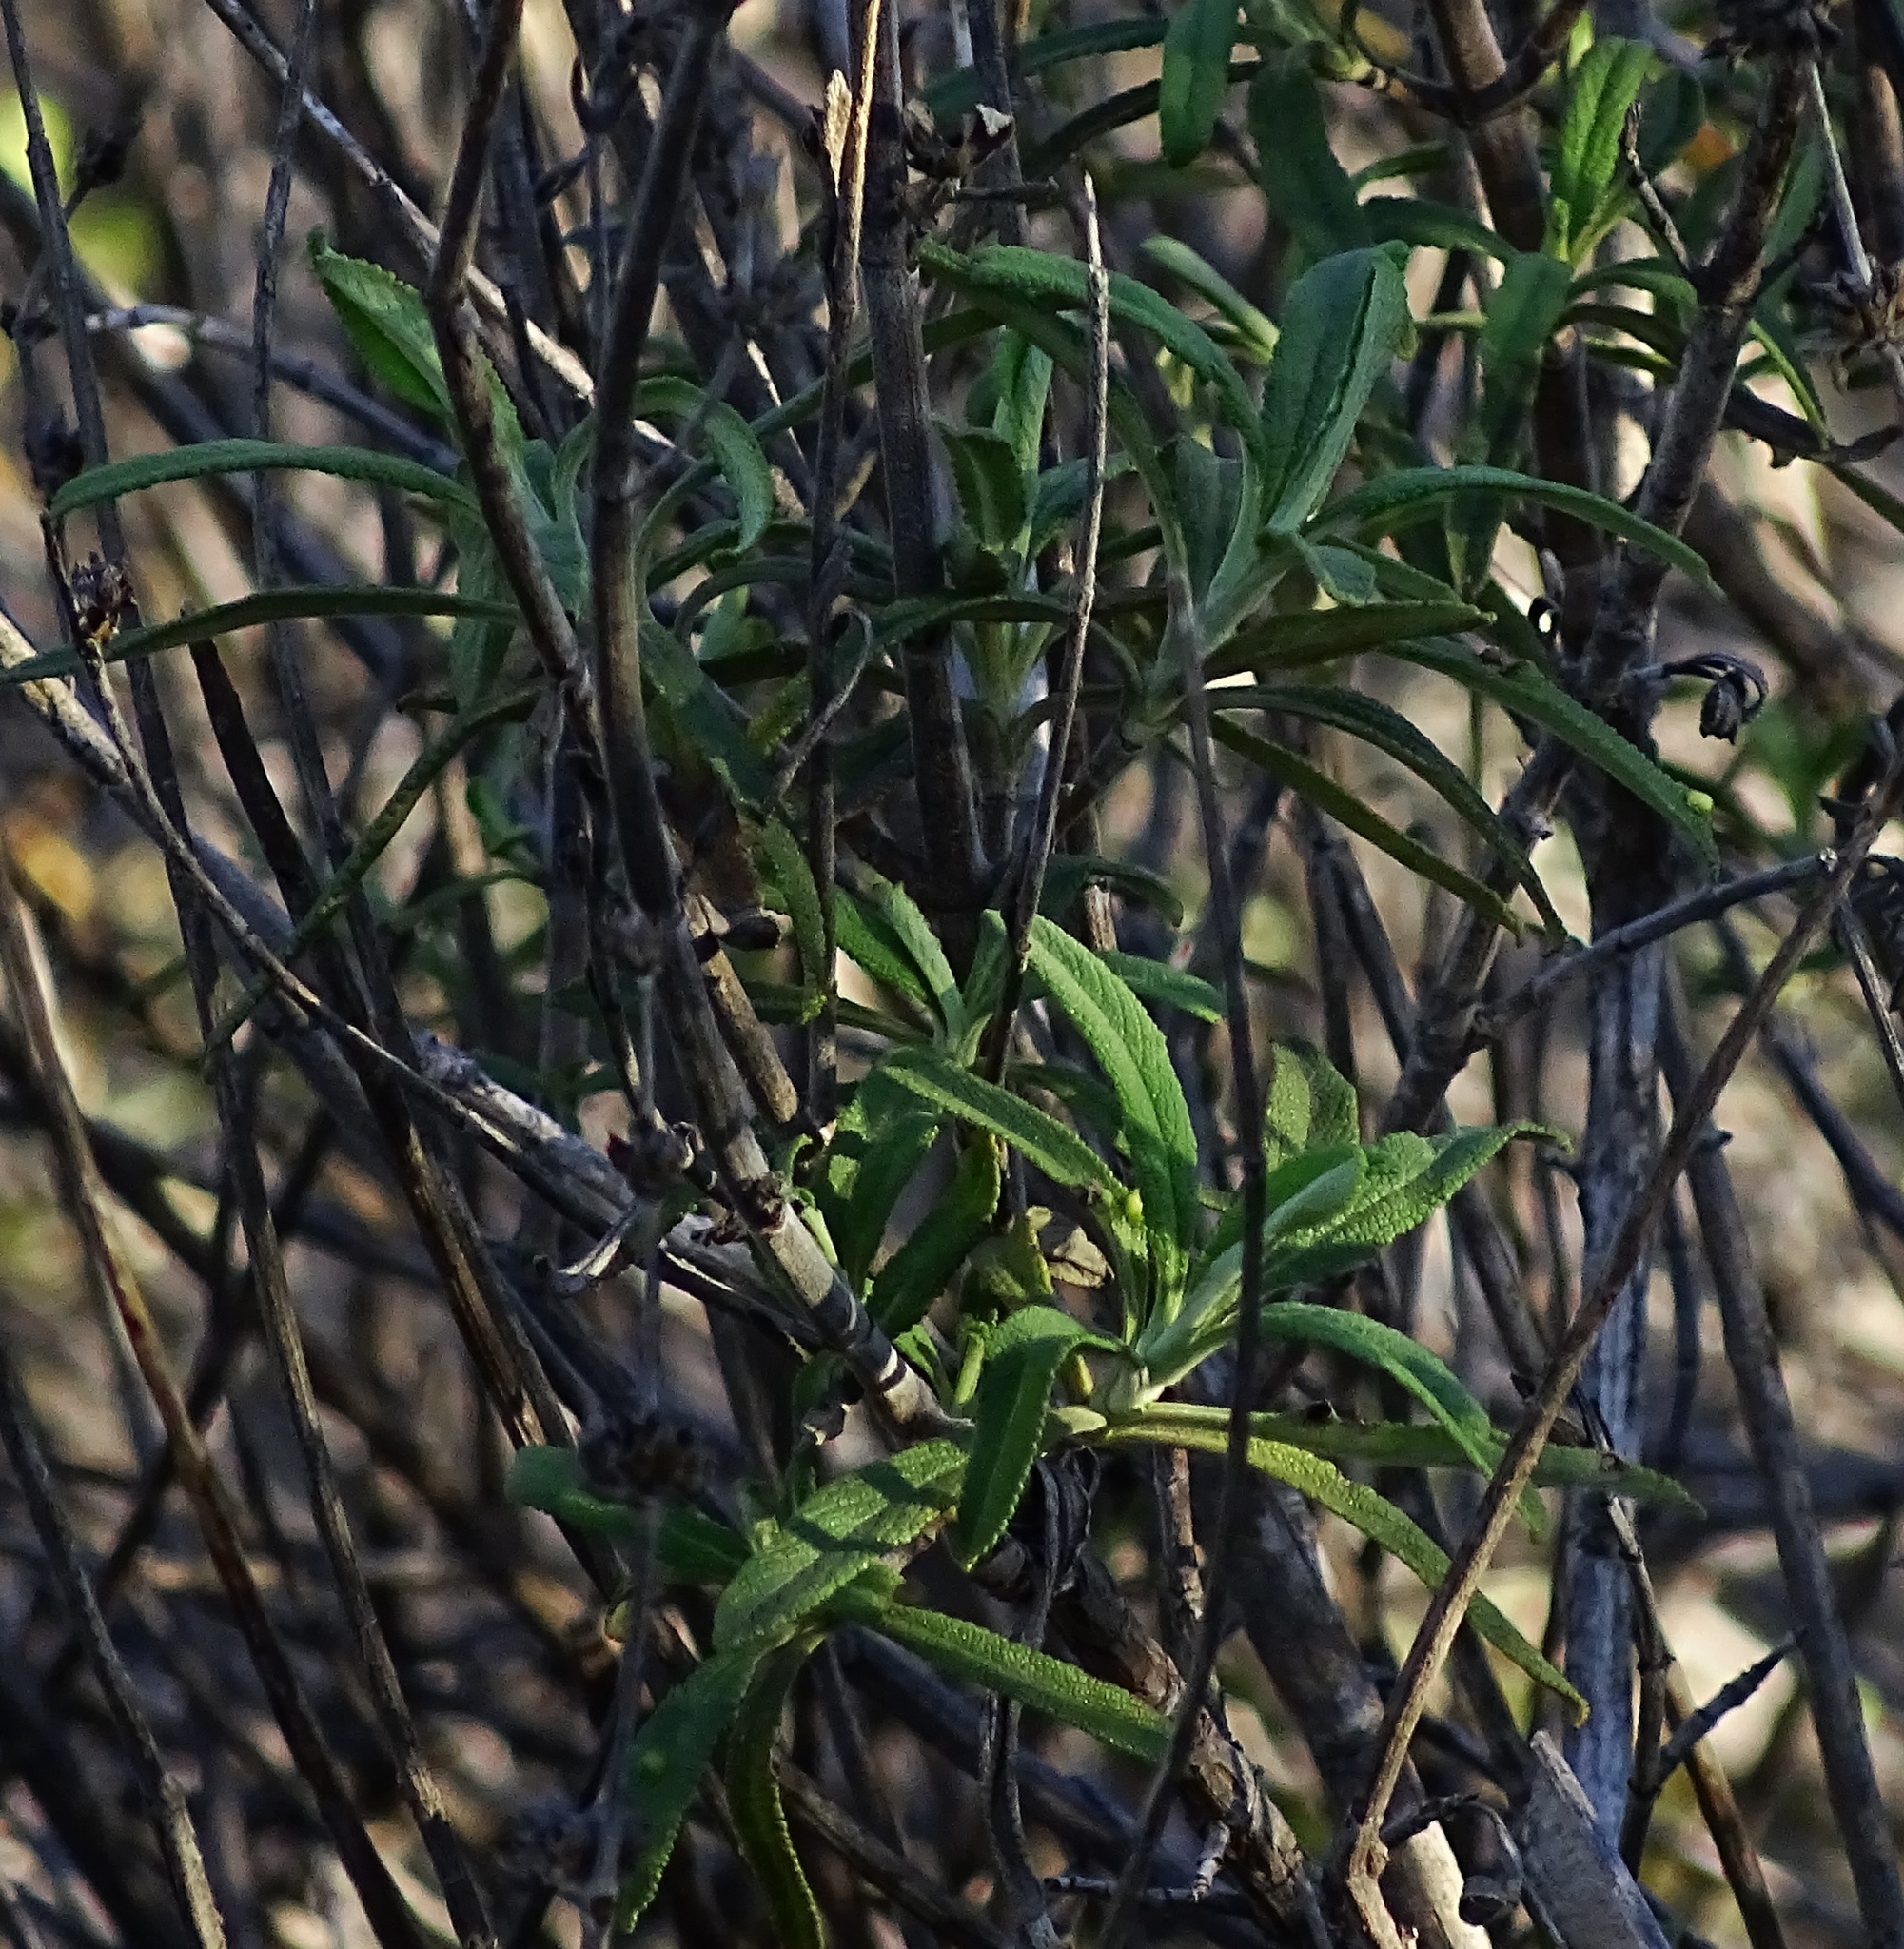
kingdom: Plantae
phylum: Tracheophyta
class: Magnoliopsida
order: Lamiales
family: Lamiaceae
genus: Salvia
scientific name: Salvia mellifera
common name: Black sage
